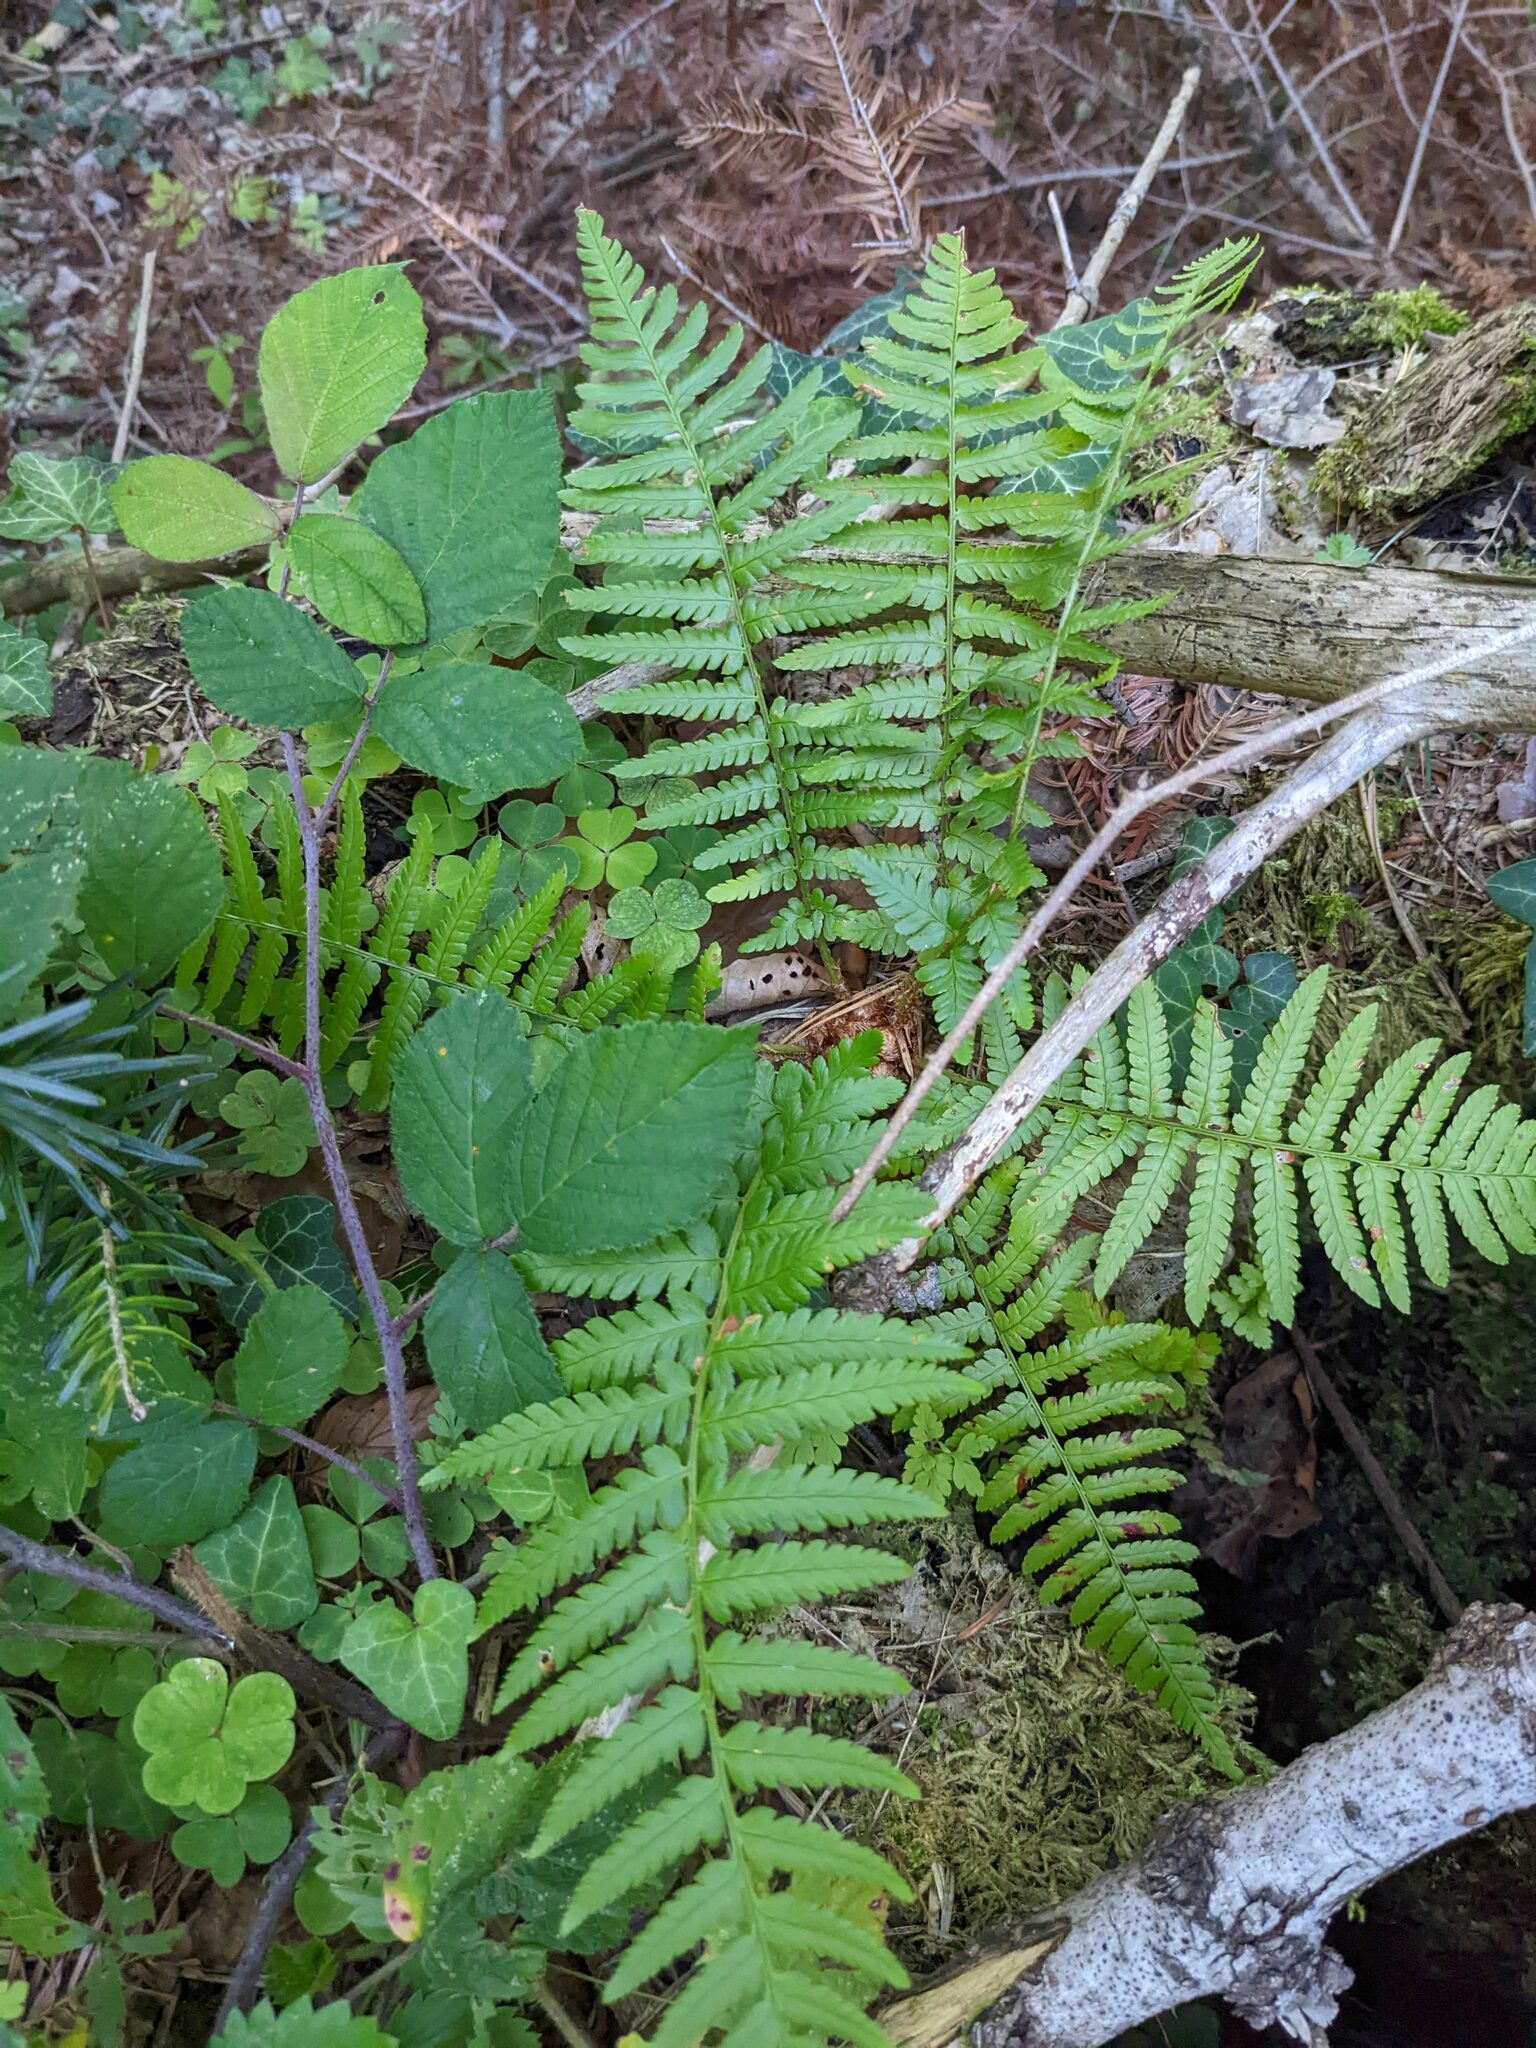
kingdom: Plantae
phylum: Tracheophyta
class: Polypodiopsida
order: Polypodiales
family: Dryopteridaceae
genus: Dryopteris
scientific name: Dryopteris filix-mas
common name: Male fern
